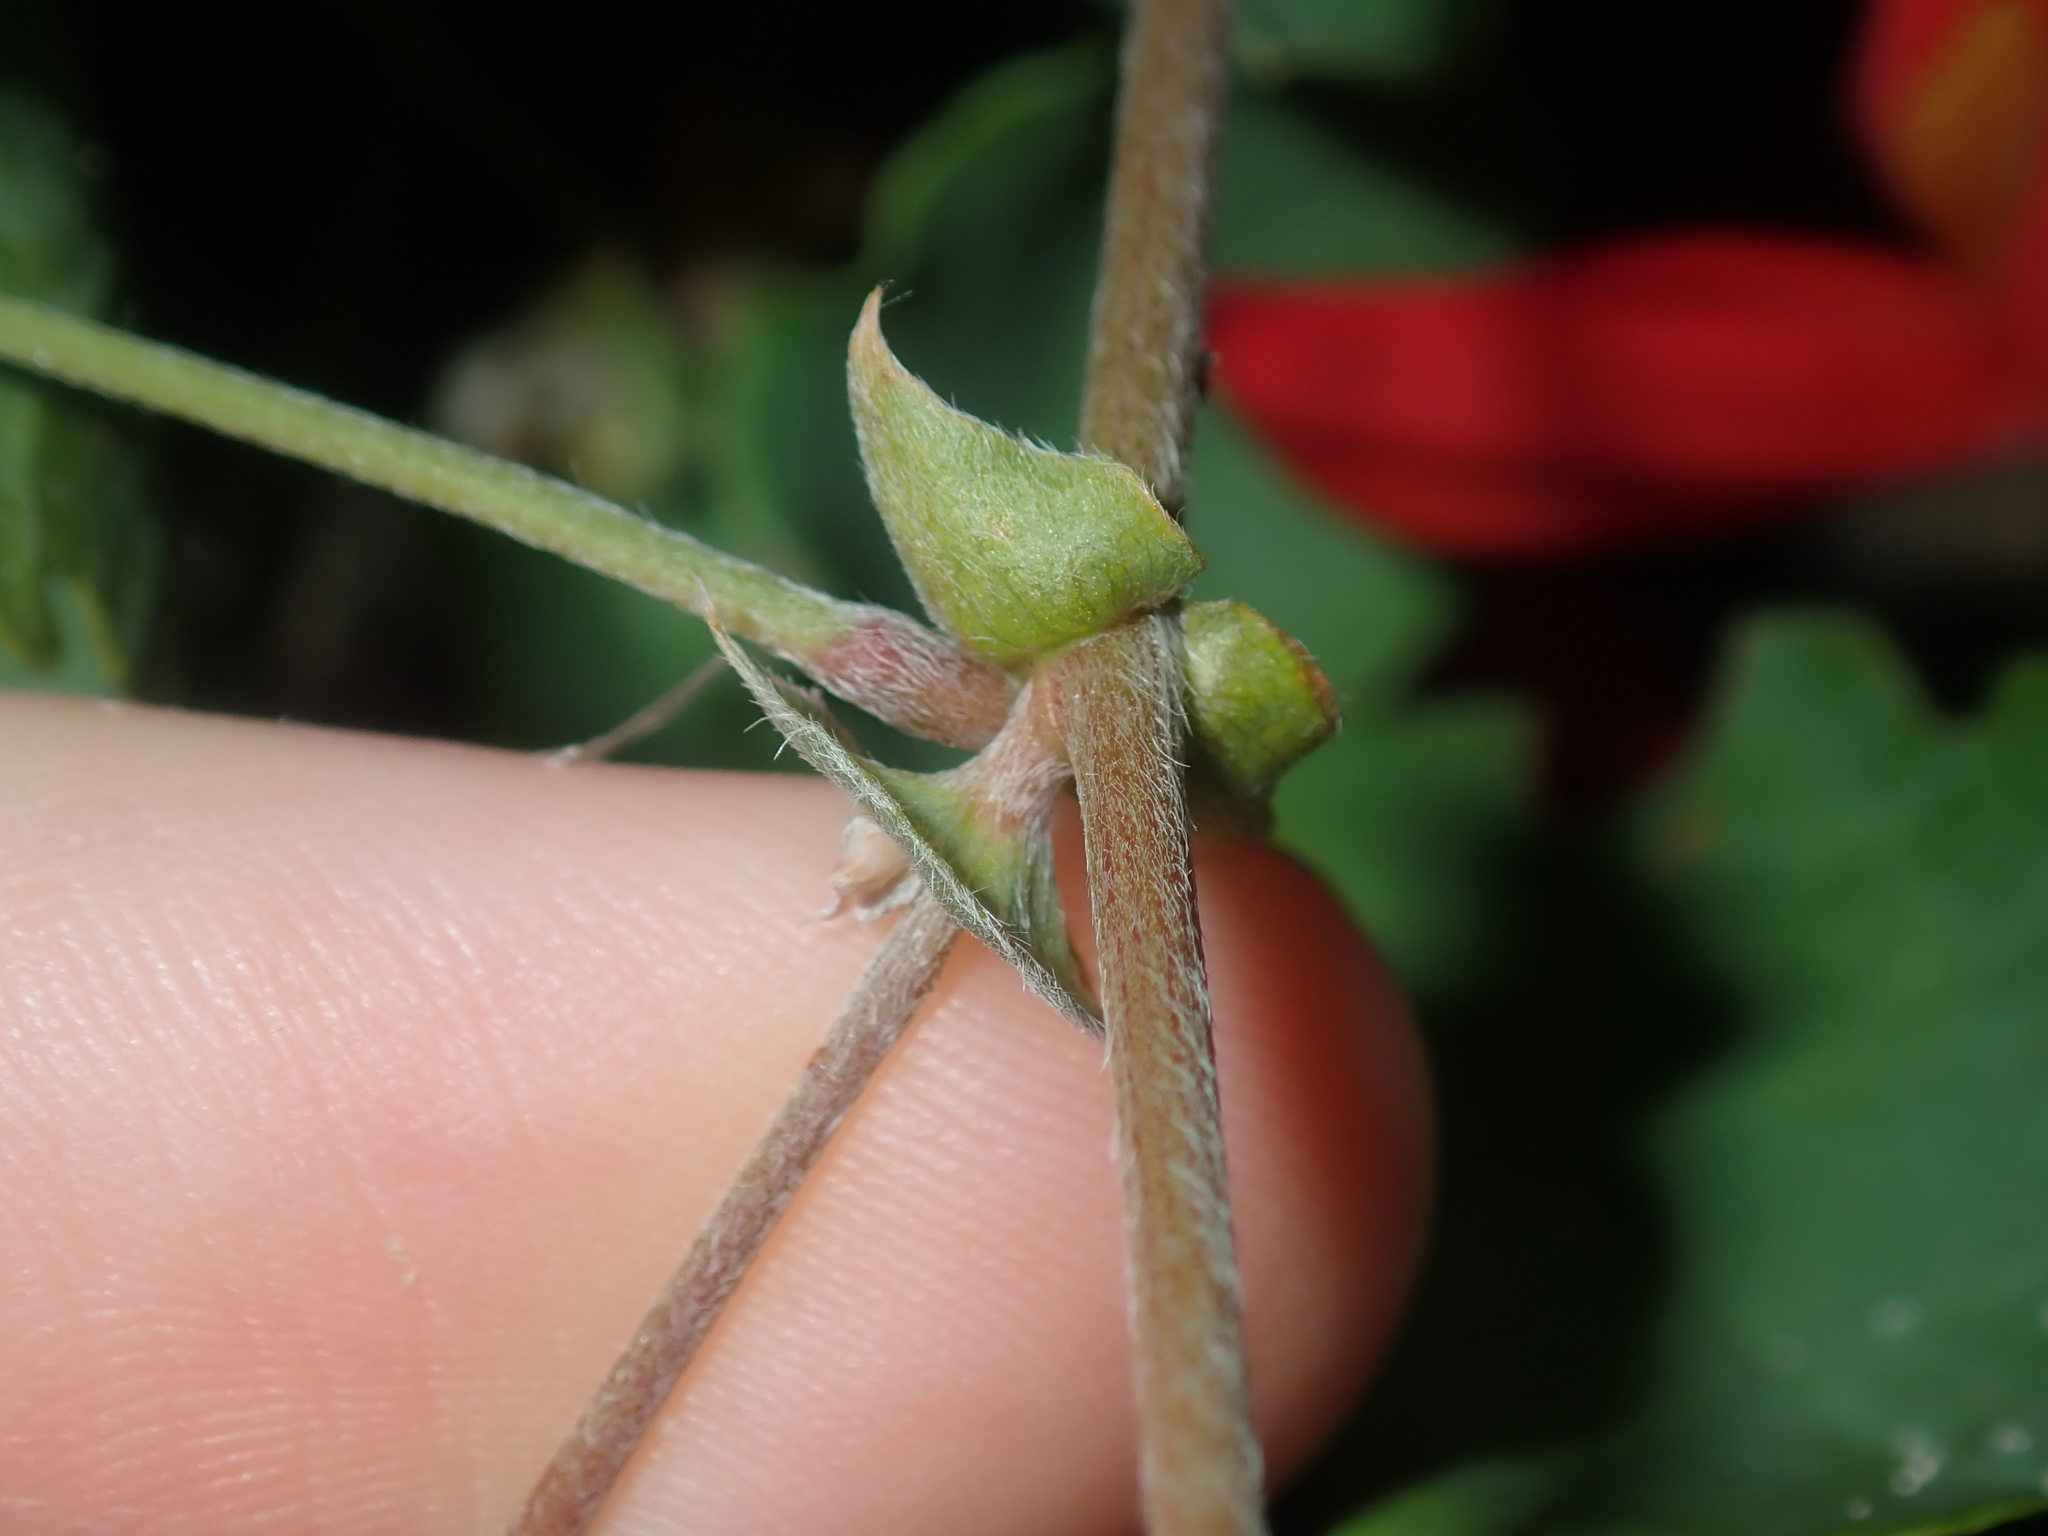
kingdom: Plantae
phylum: Tracheophyta
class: Magnoliopsida
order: Fabales
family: Fabaceae
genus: Kennedia
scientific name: Kennedia prostrata
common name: Running-postman
